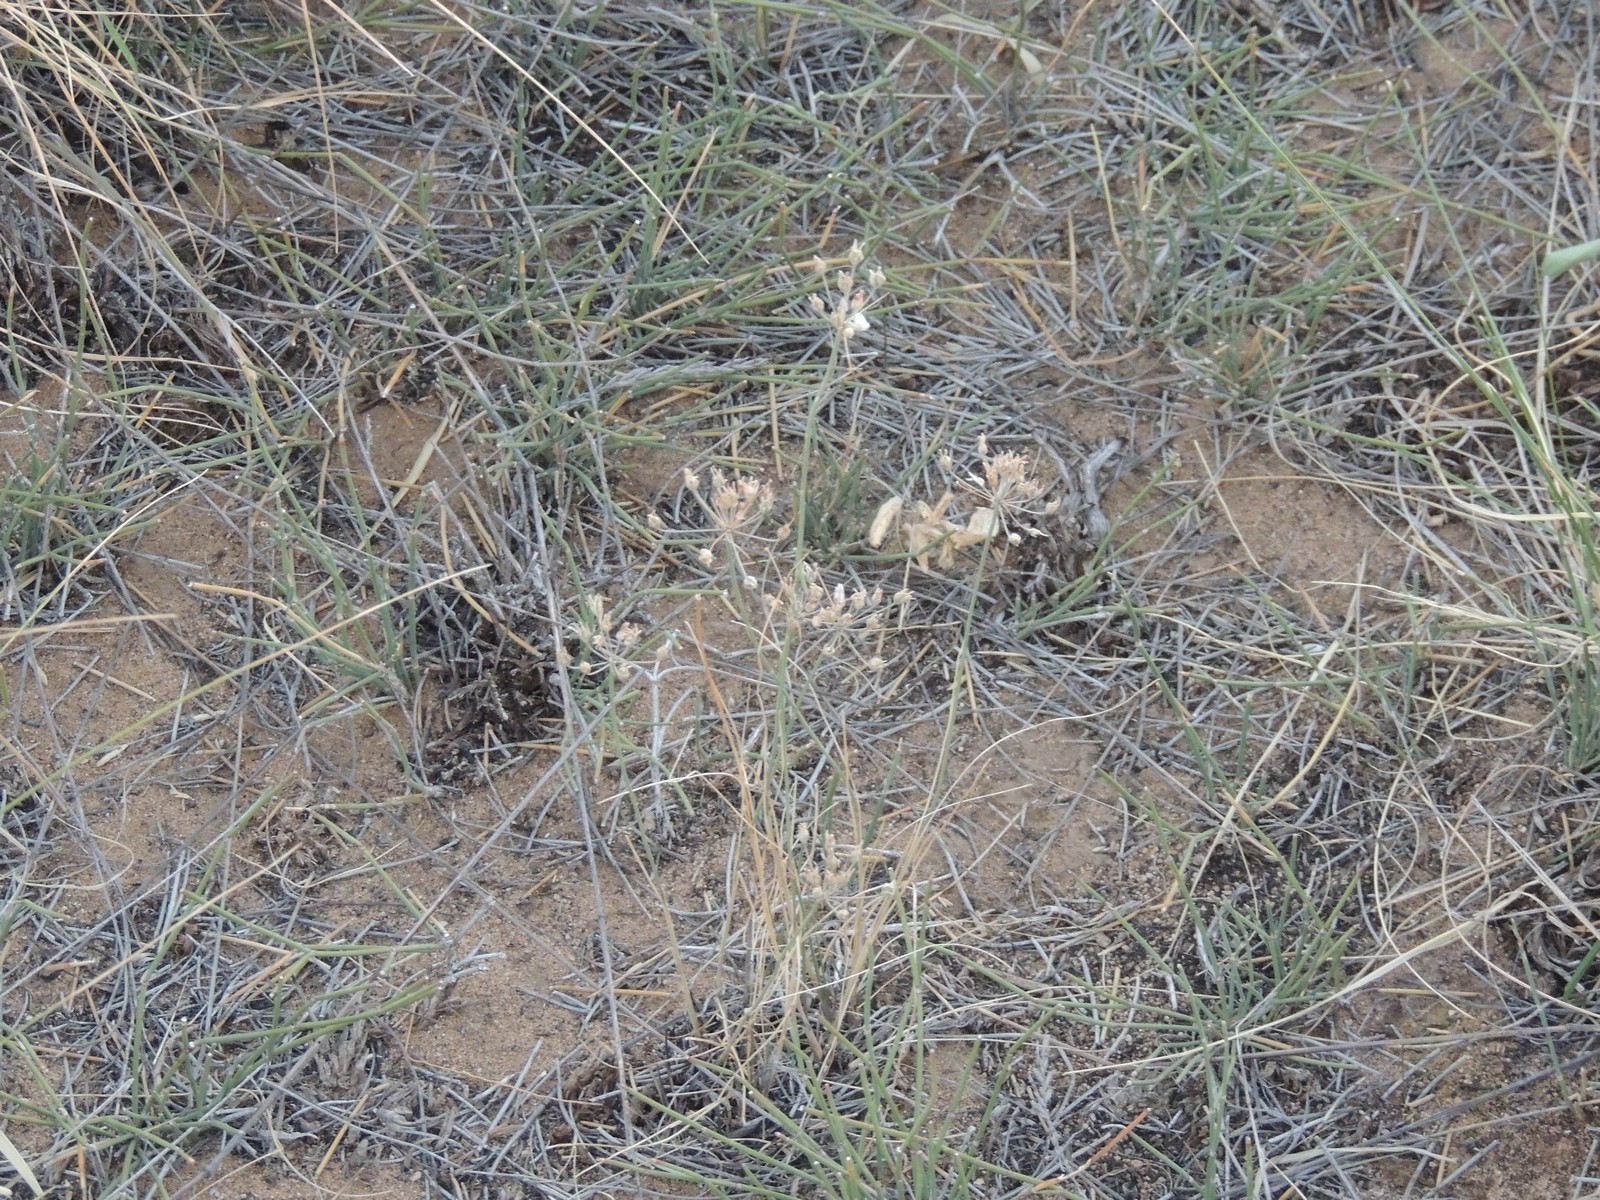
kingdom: Plantae
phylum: Tracheophyta
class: Liliopsida
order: Asparagales
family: Amaryllidaceae
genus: Allium
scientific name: Allium inaequale
